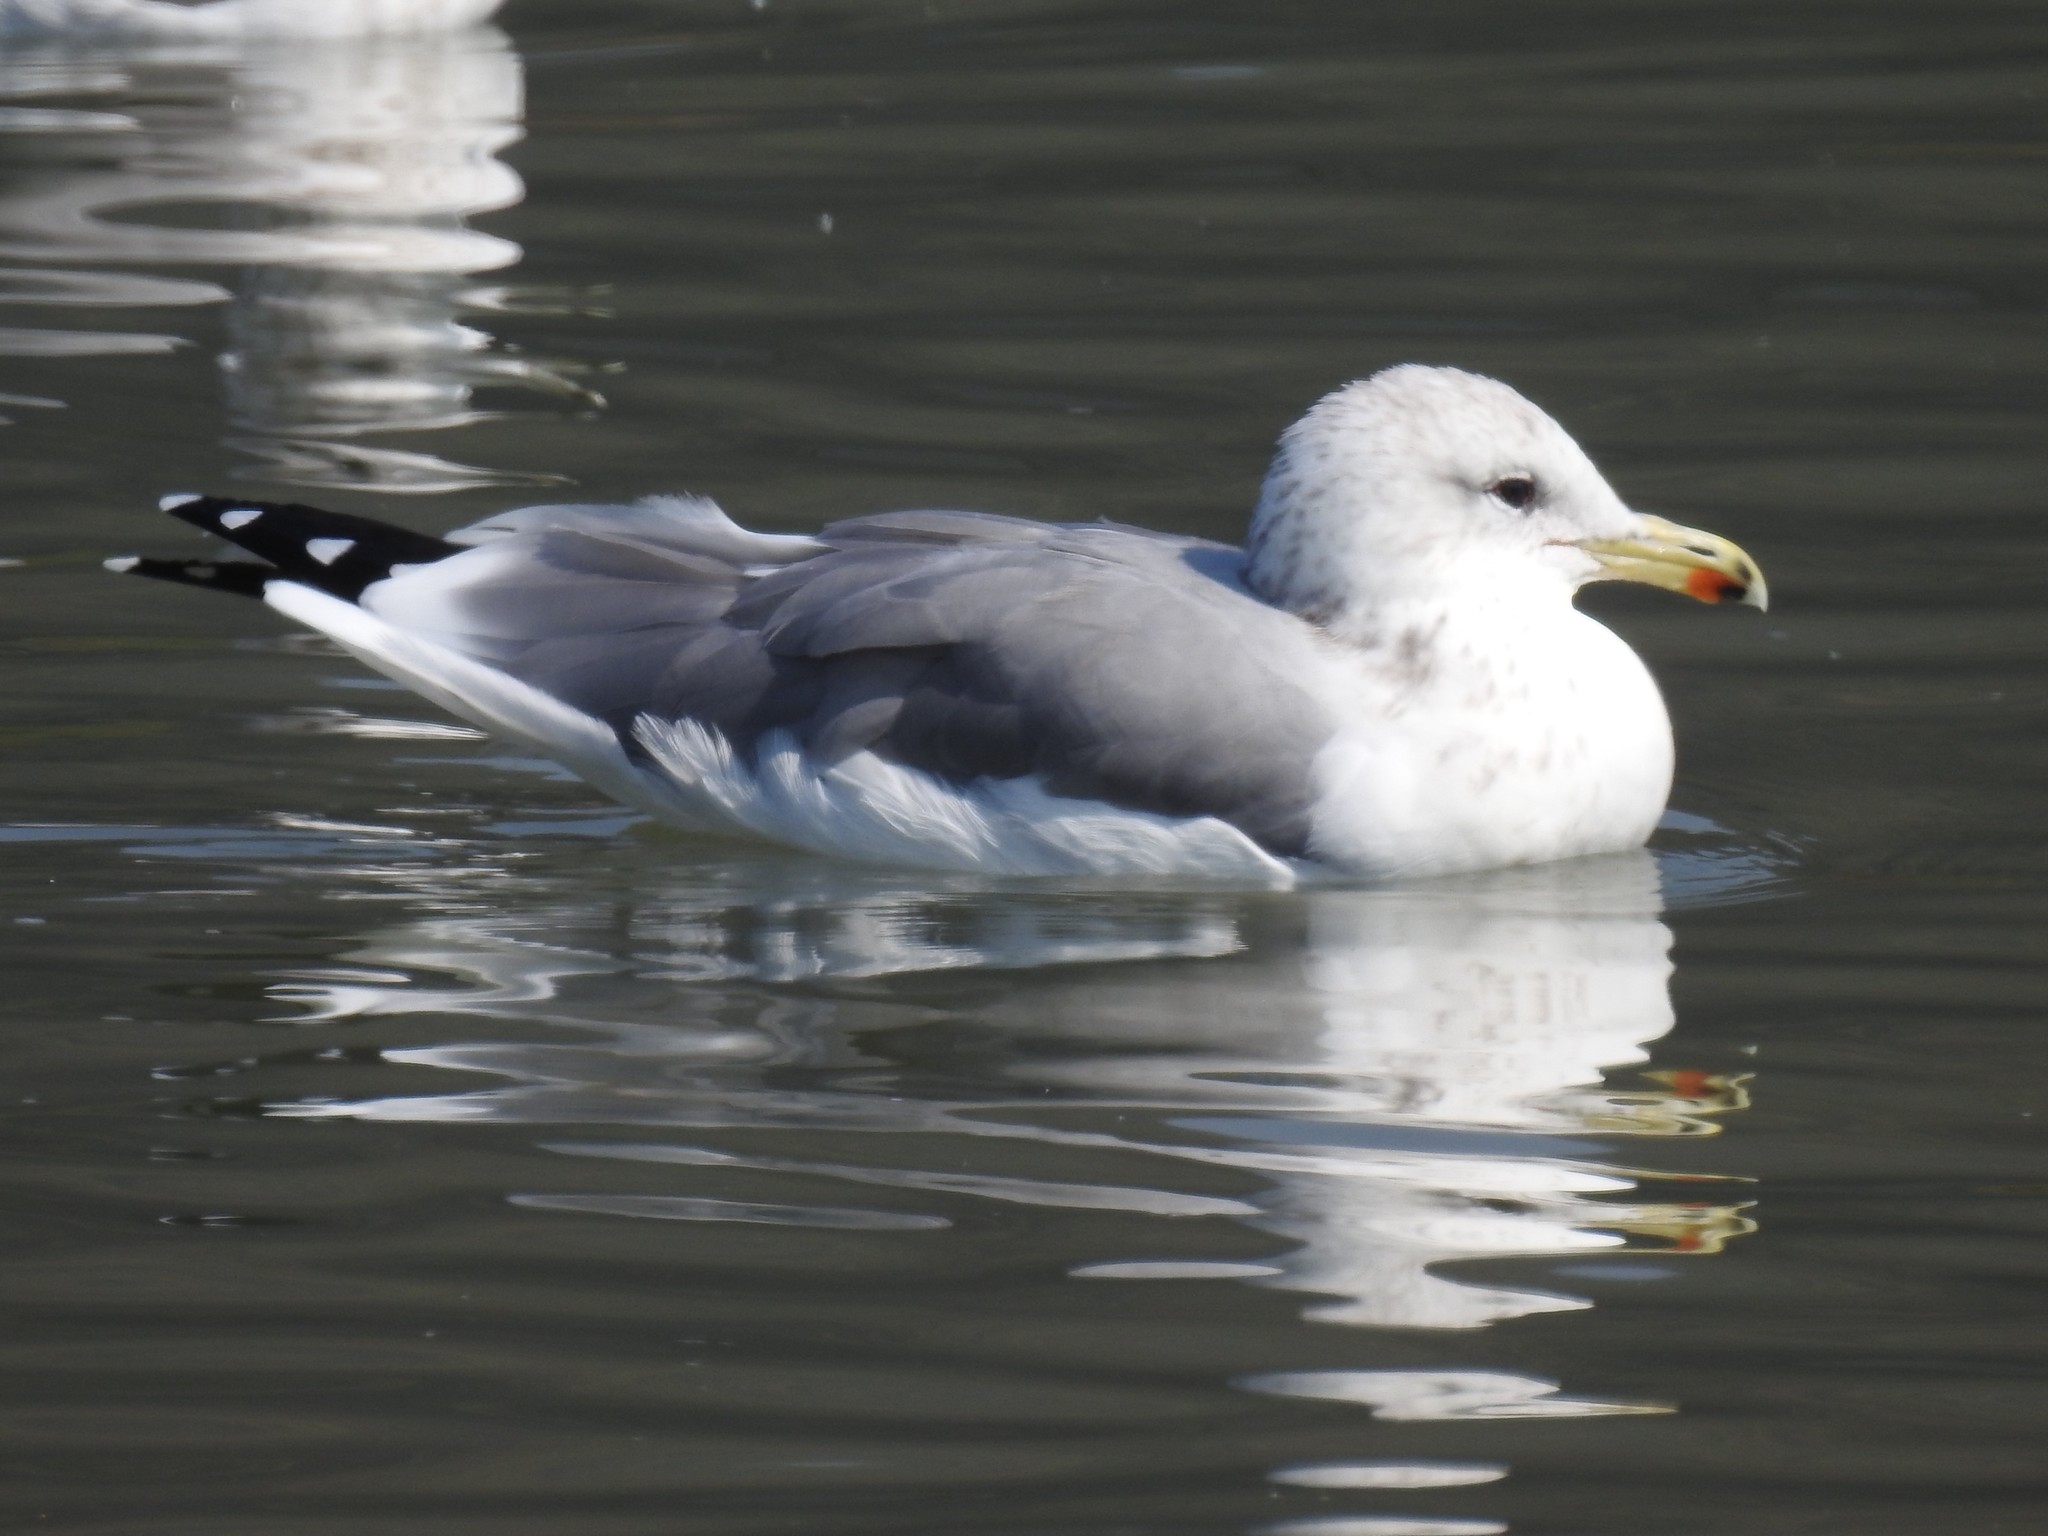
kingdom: Animalia
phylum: Chordata
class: Aves
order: Charadriiformes
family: Laridae
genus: Larus
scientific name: Larus californicus
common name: California gull
